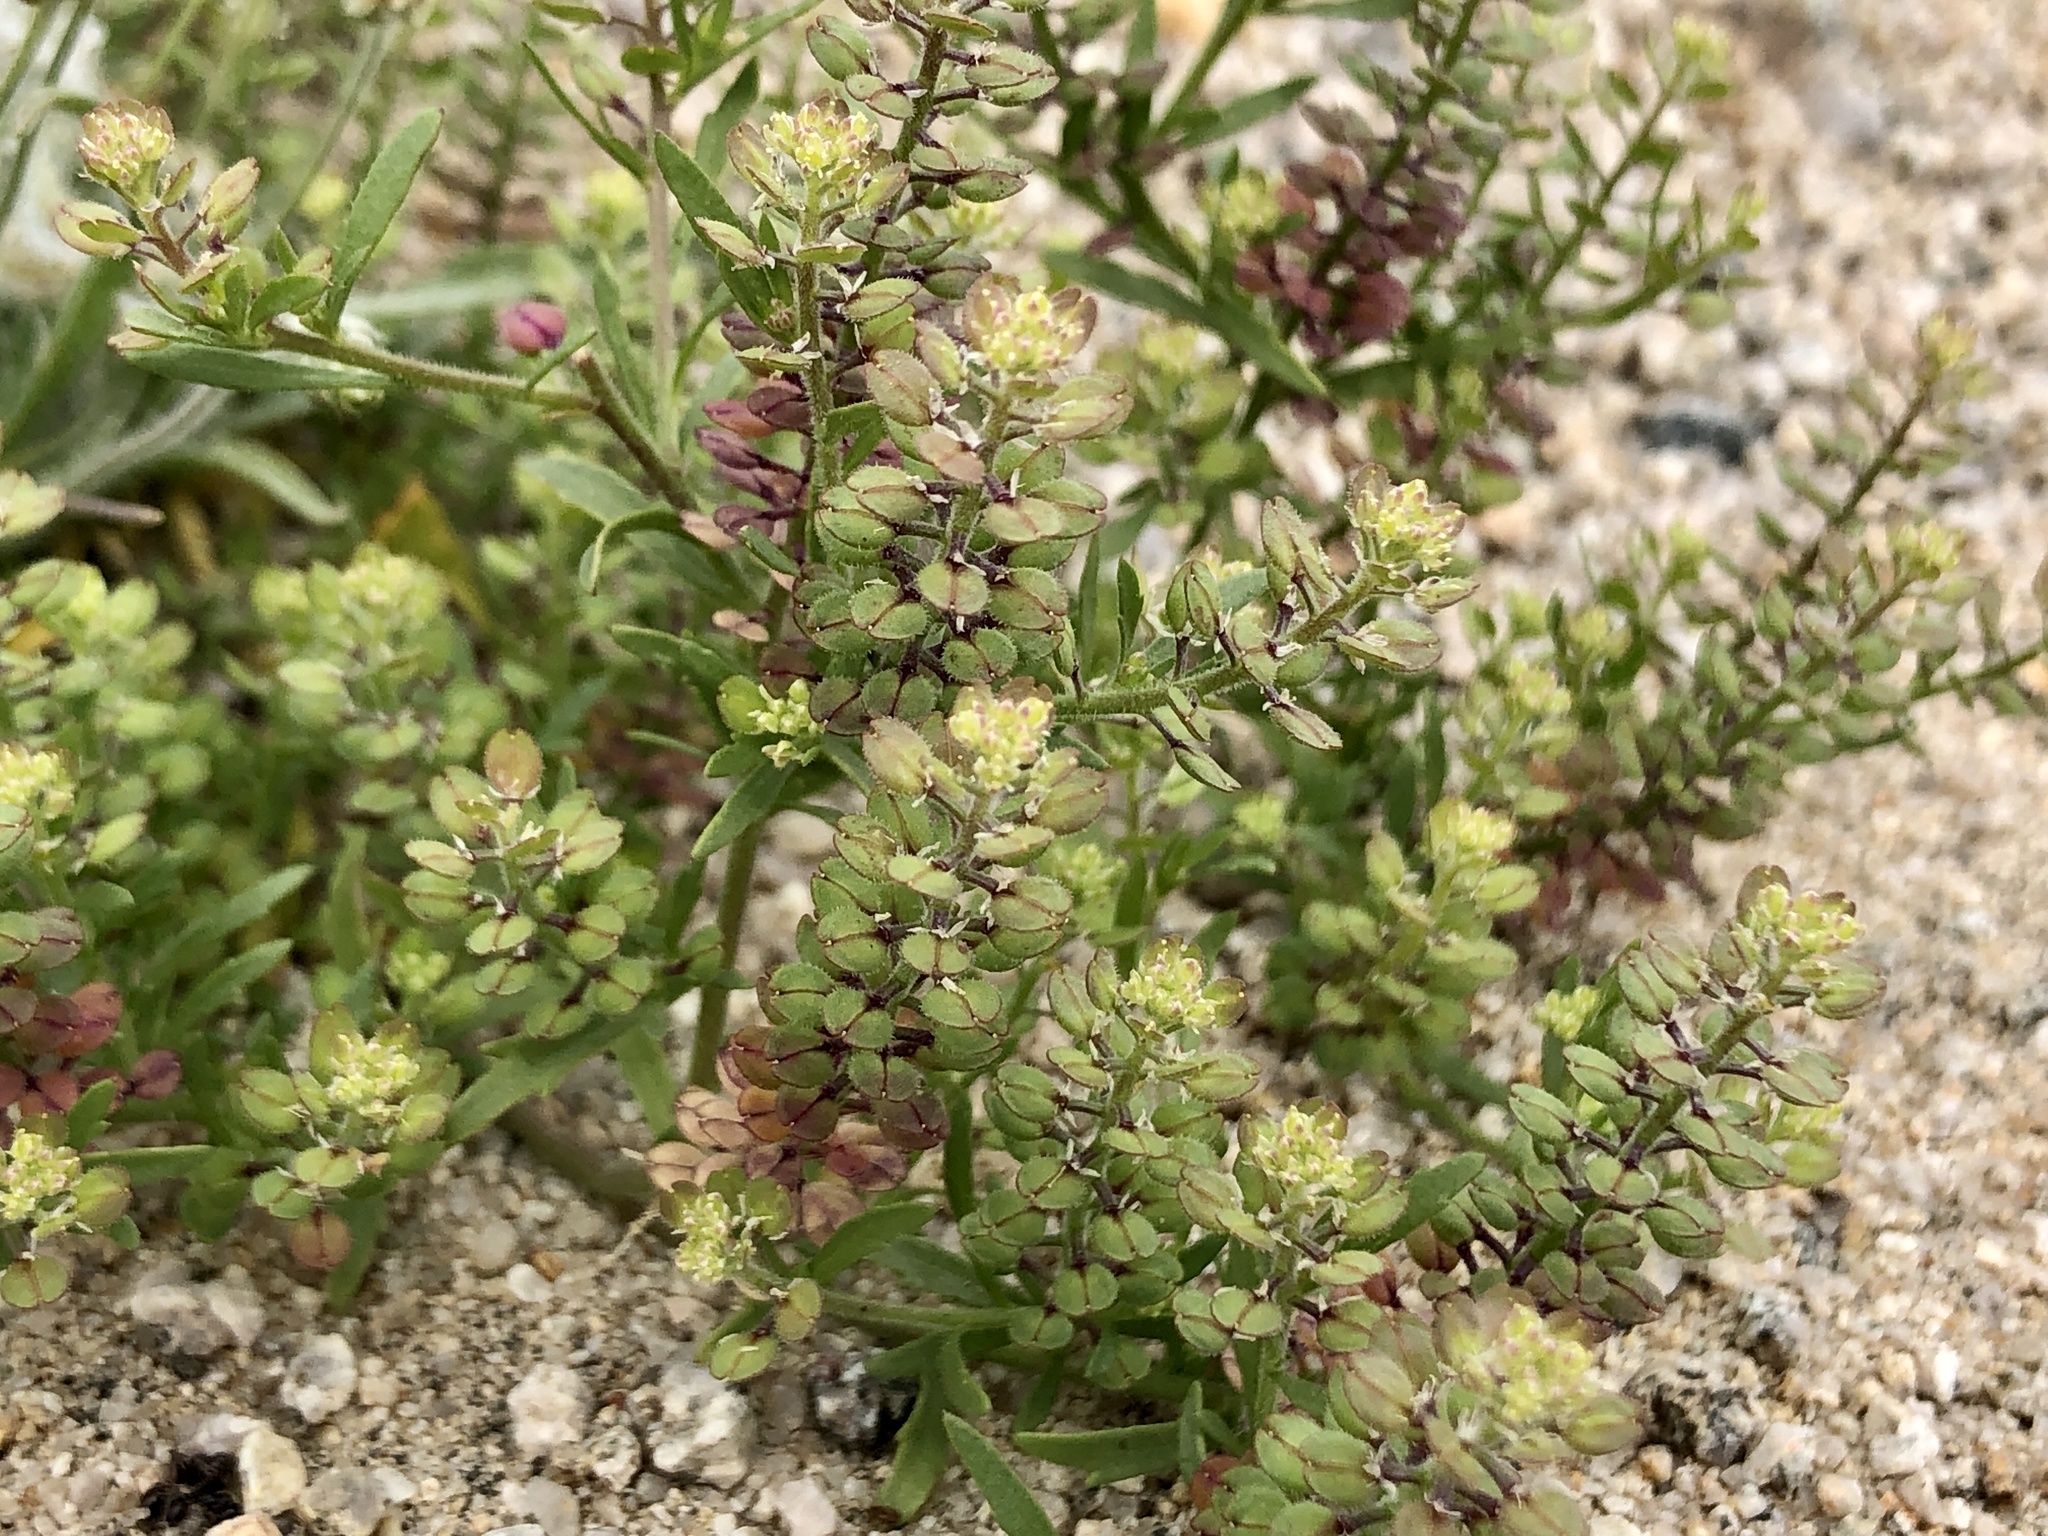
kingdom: Plantae
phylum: Tracheophyta
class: Magnoliopsida
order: Brassicales
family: Brassicaceae
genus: Lepidium
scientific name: Lepidium lasiocarpum
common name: Hairy-pod pepperwort
